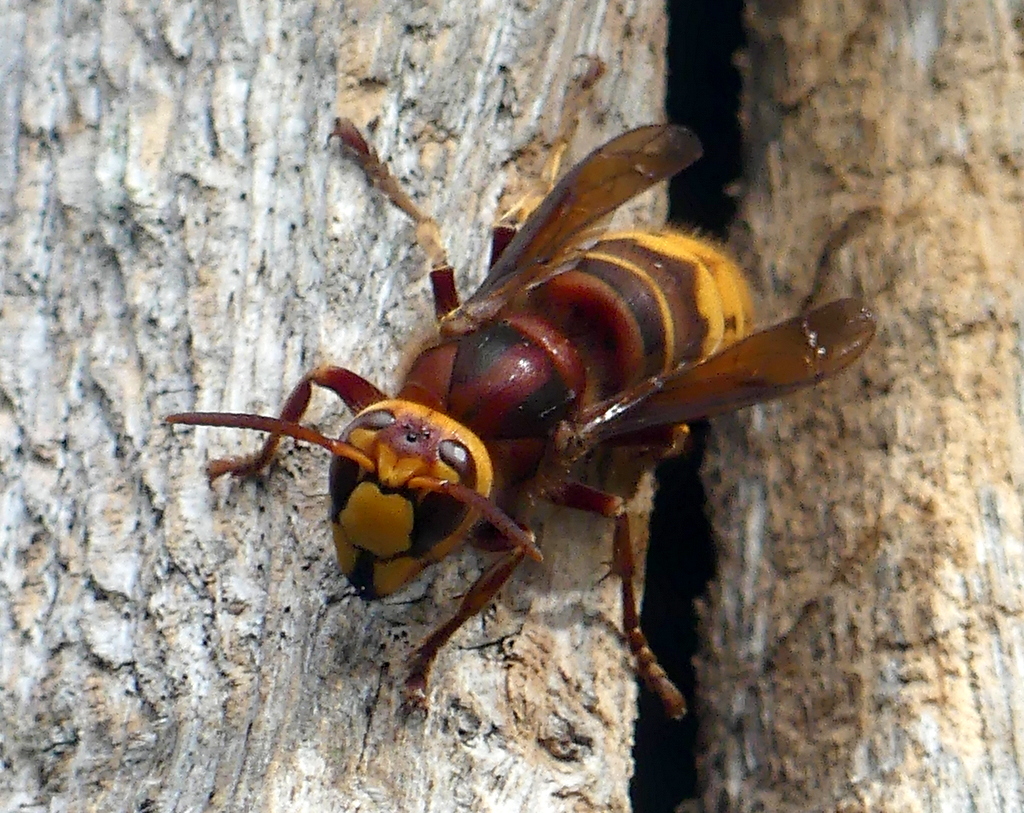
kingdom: Animalia
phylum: Arthropoda
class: Insecta
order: Hymenoptera
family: Vespidae
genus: Vespa
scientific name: Vespa crabro
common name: Hornet
